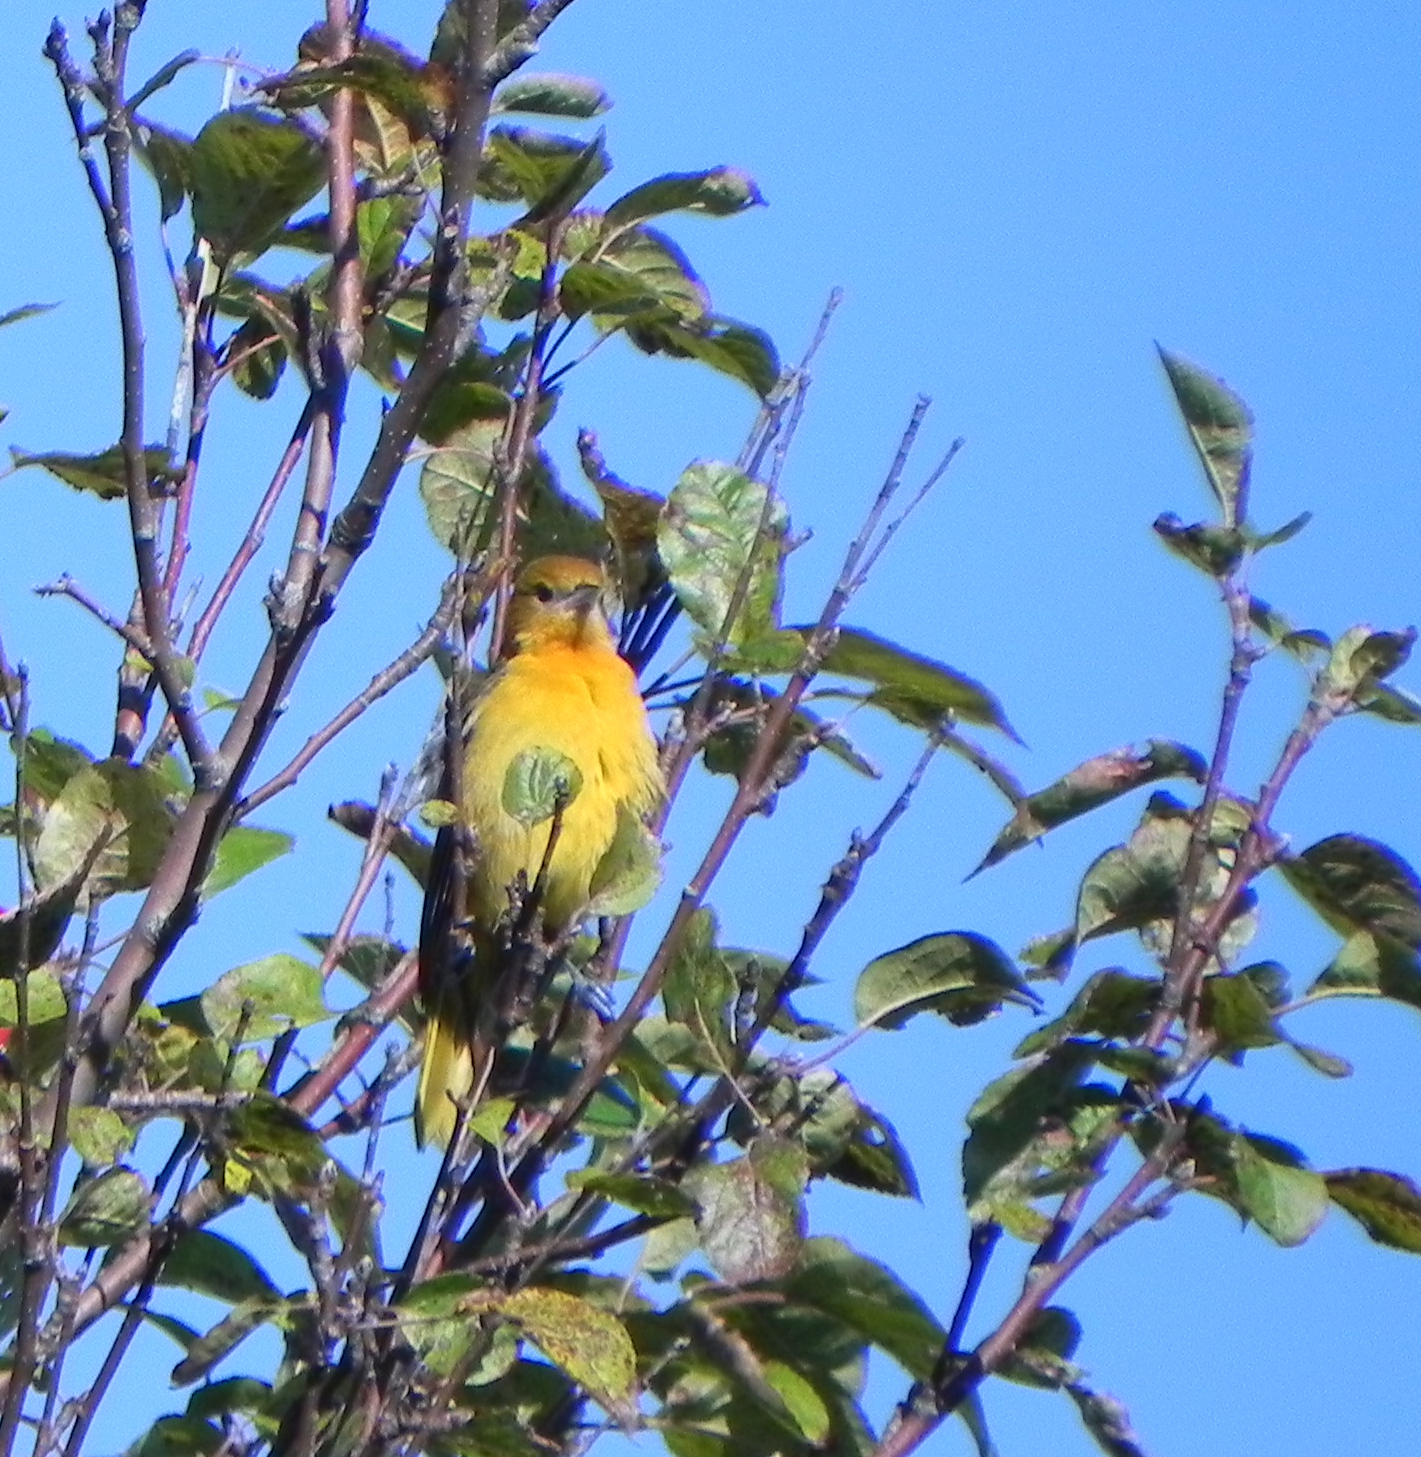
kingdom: Animalia
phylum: Chordata
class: Aves
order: Passeriformes
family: Icteridae
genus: Icterus
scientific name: Icterus galbula
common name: Baltimore oriole
